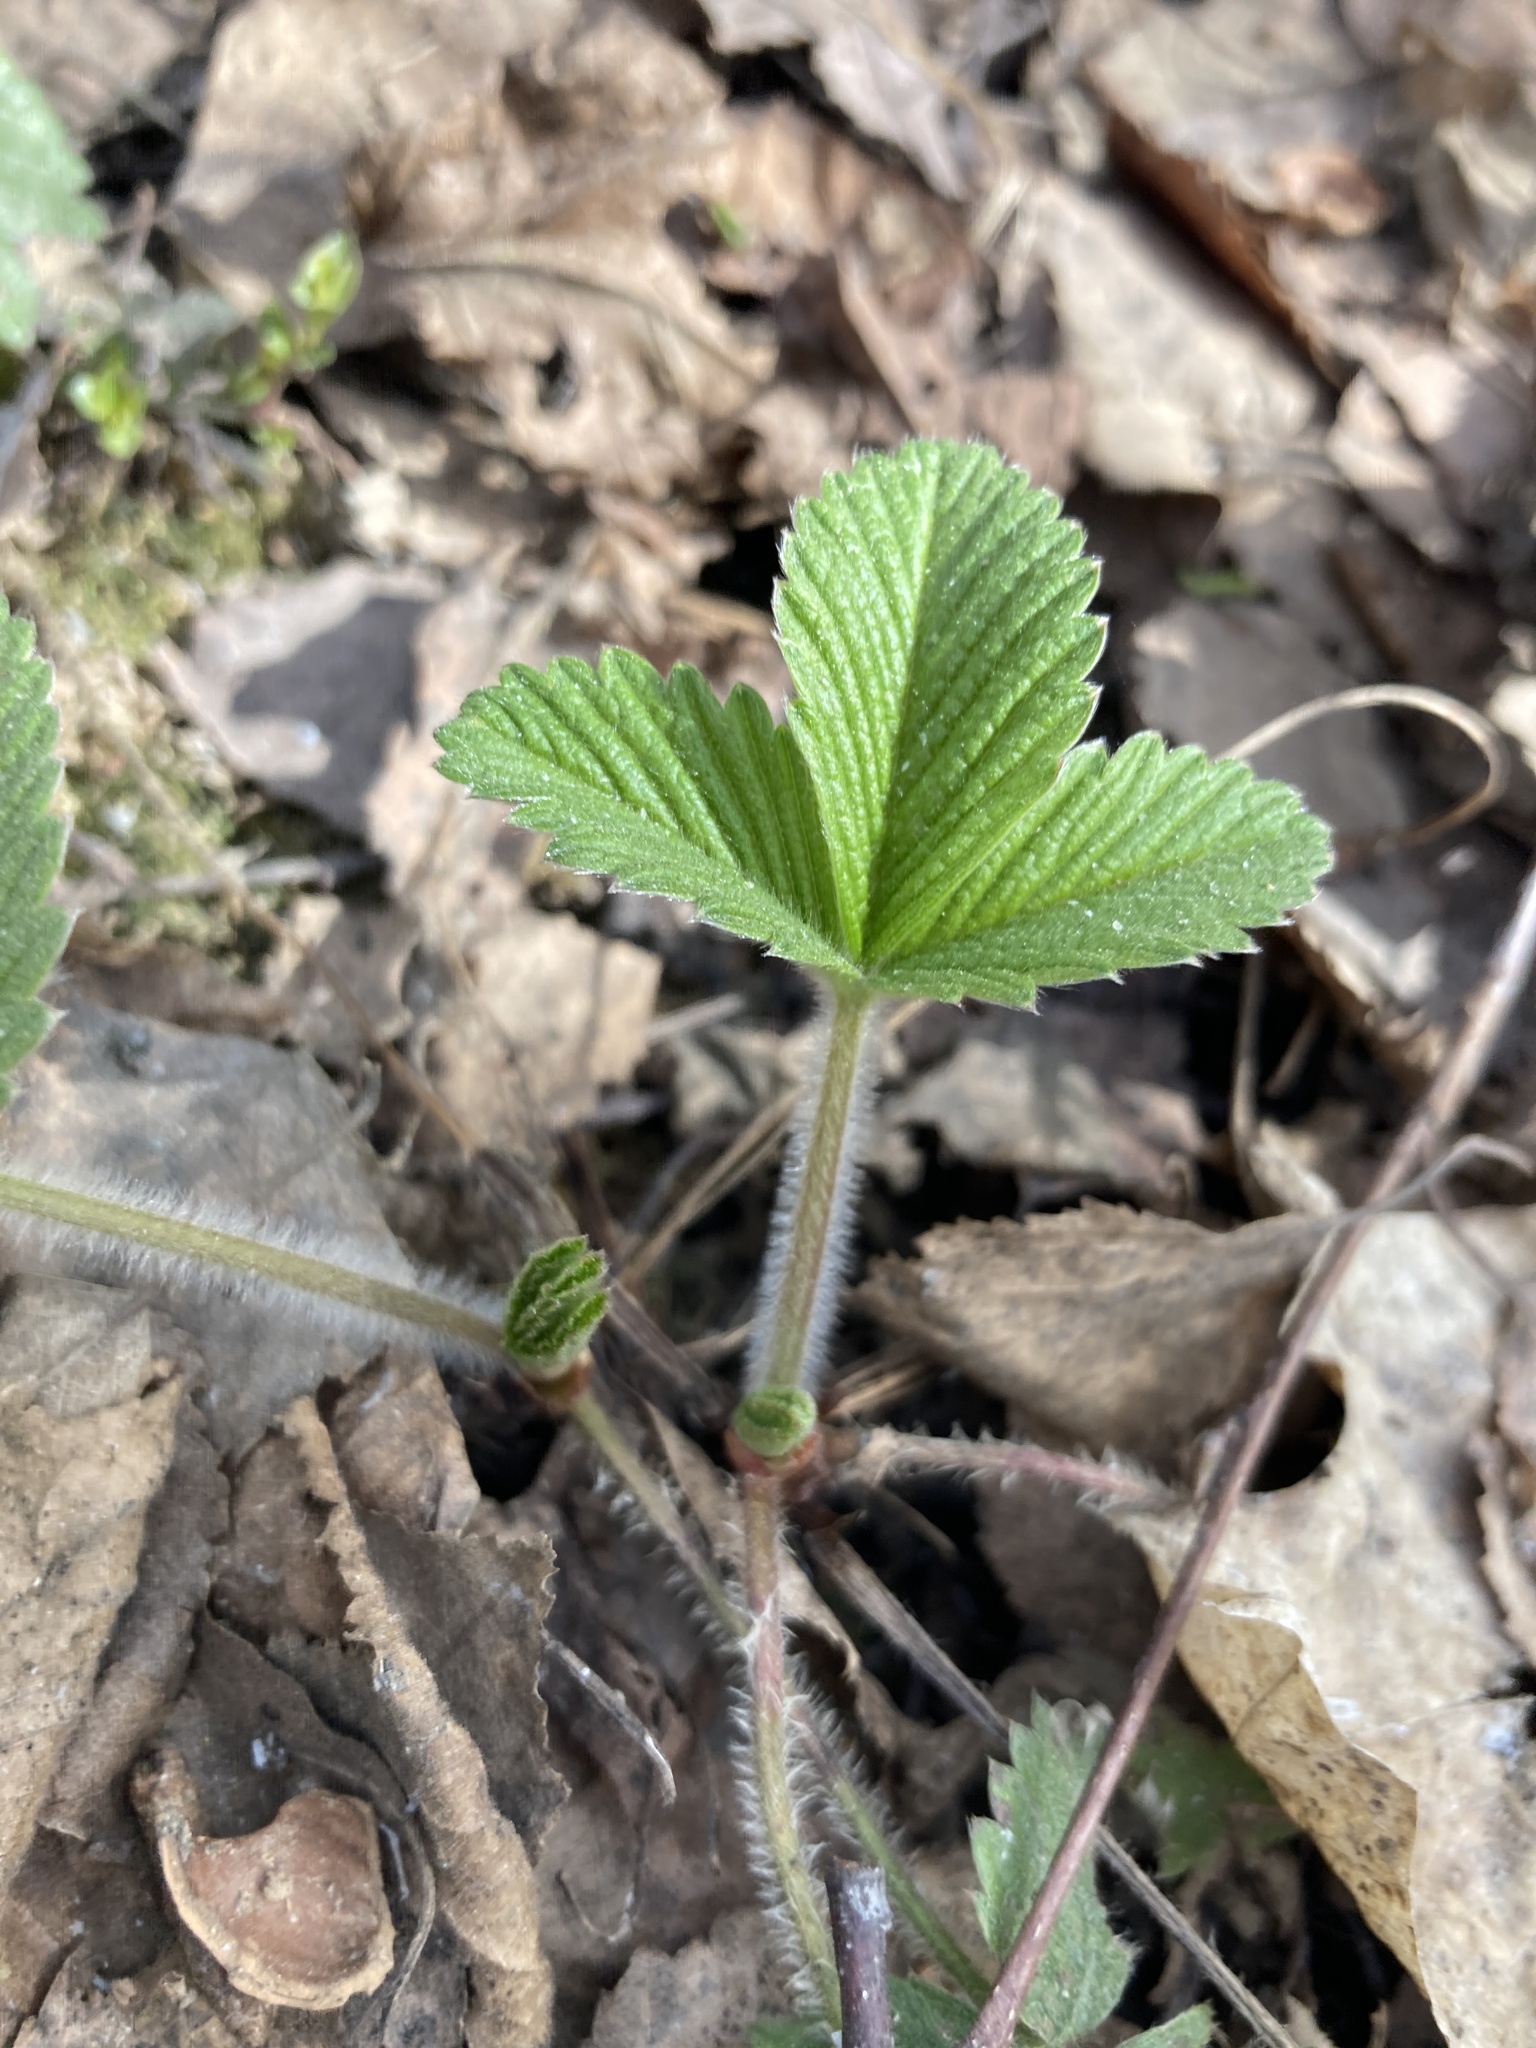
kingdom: Plantae
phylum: Tracheophyta
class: Magnoliopsida
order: Rosales
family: Rosaceae
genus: Fragaria
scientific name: Fragaria vesca
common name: Wild strawberry
